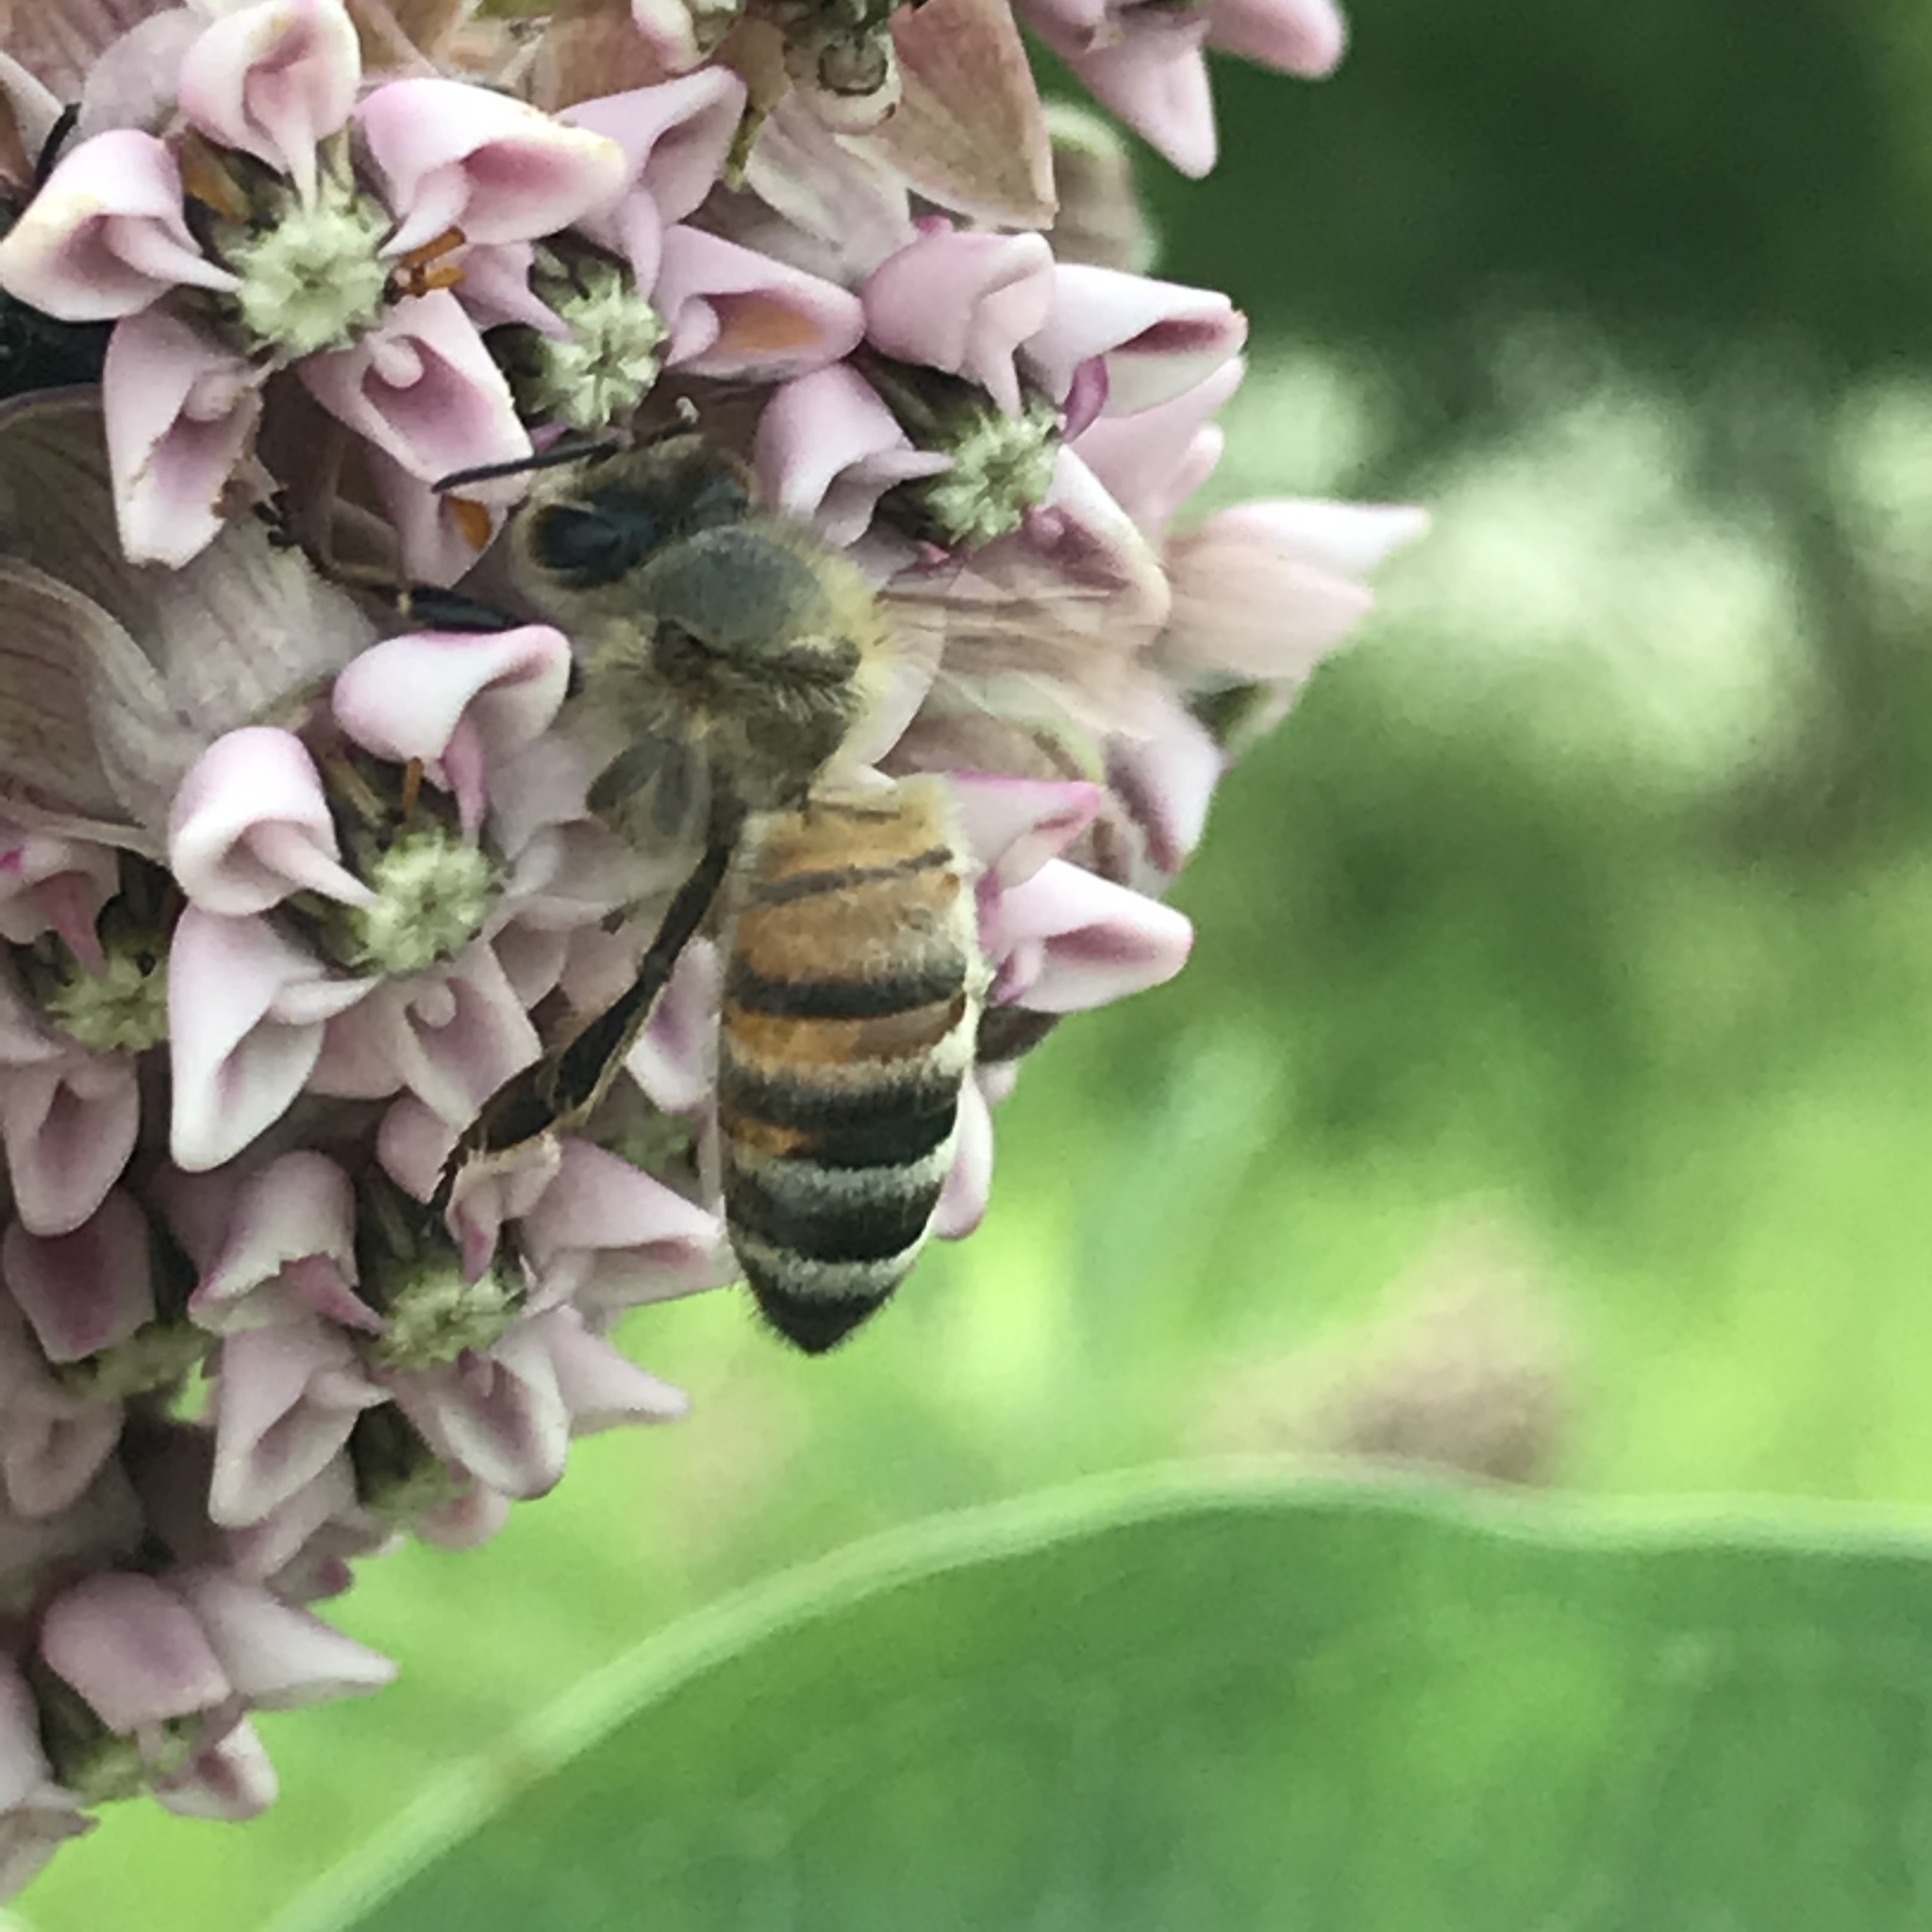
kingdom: Animalia
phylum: Arthropoda
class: Insecta
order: Hymenoptera
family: Apidae
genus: Apis
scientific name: Apis mellifera
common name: Honey bee
